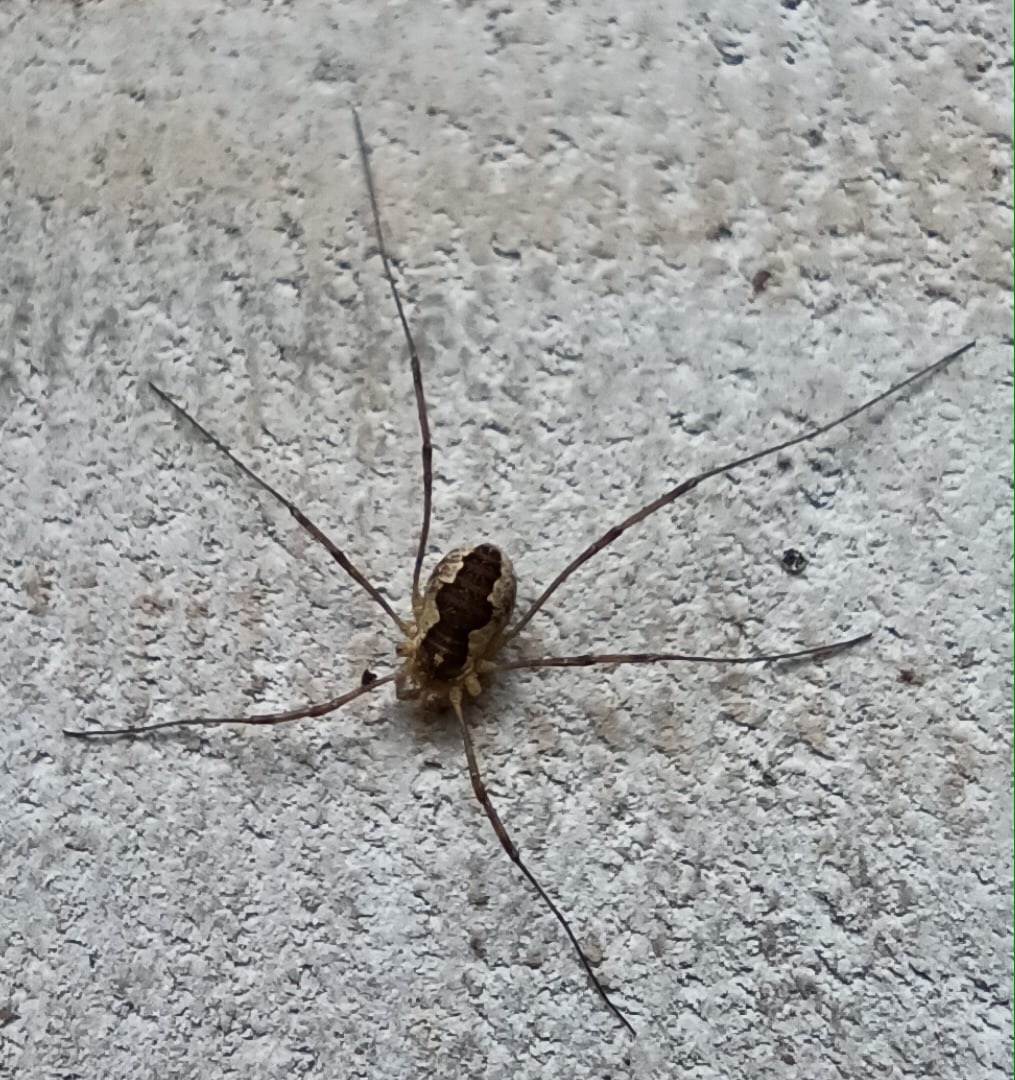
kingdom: Animalia
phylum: Arthropoda
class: Arachnida
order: Opiliones
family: Phalangiidae
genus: Mitopus
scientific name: Mitopus morio
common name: Saddleback harvestman
